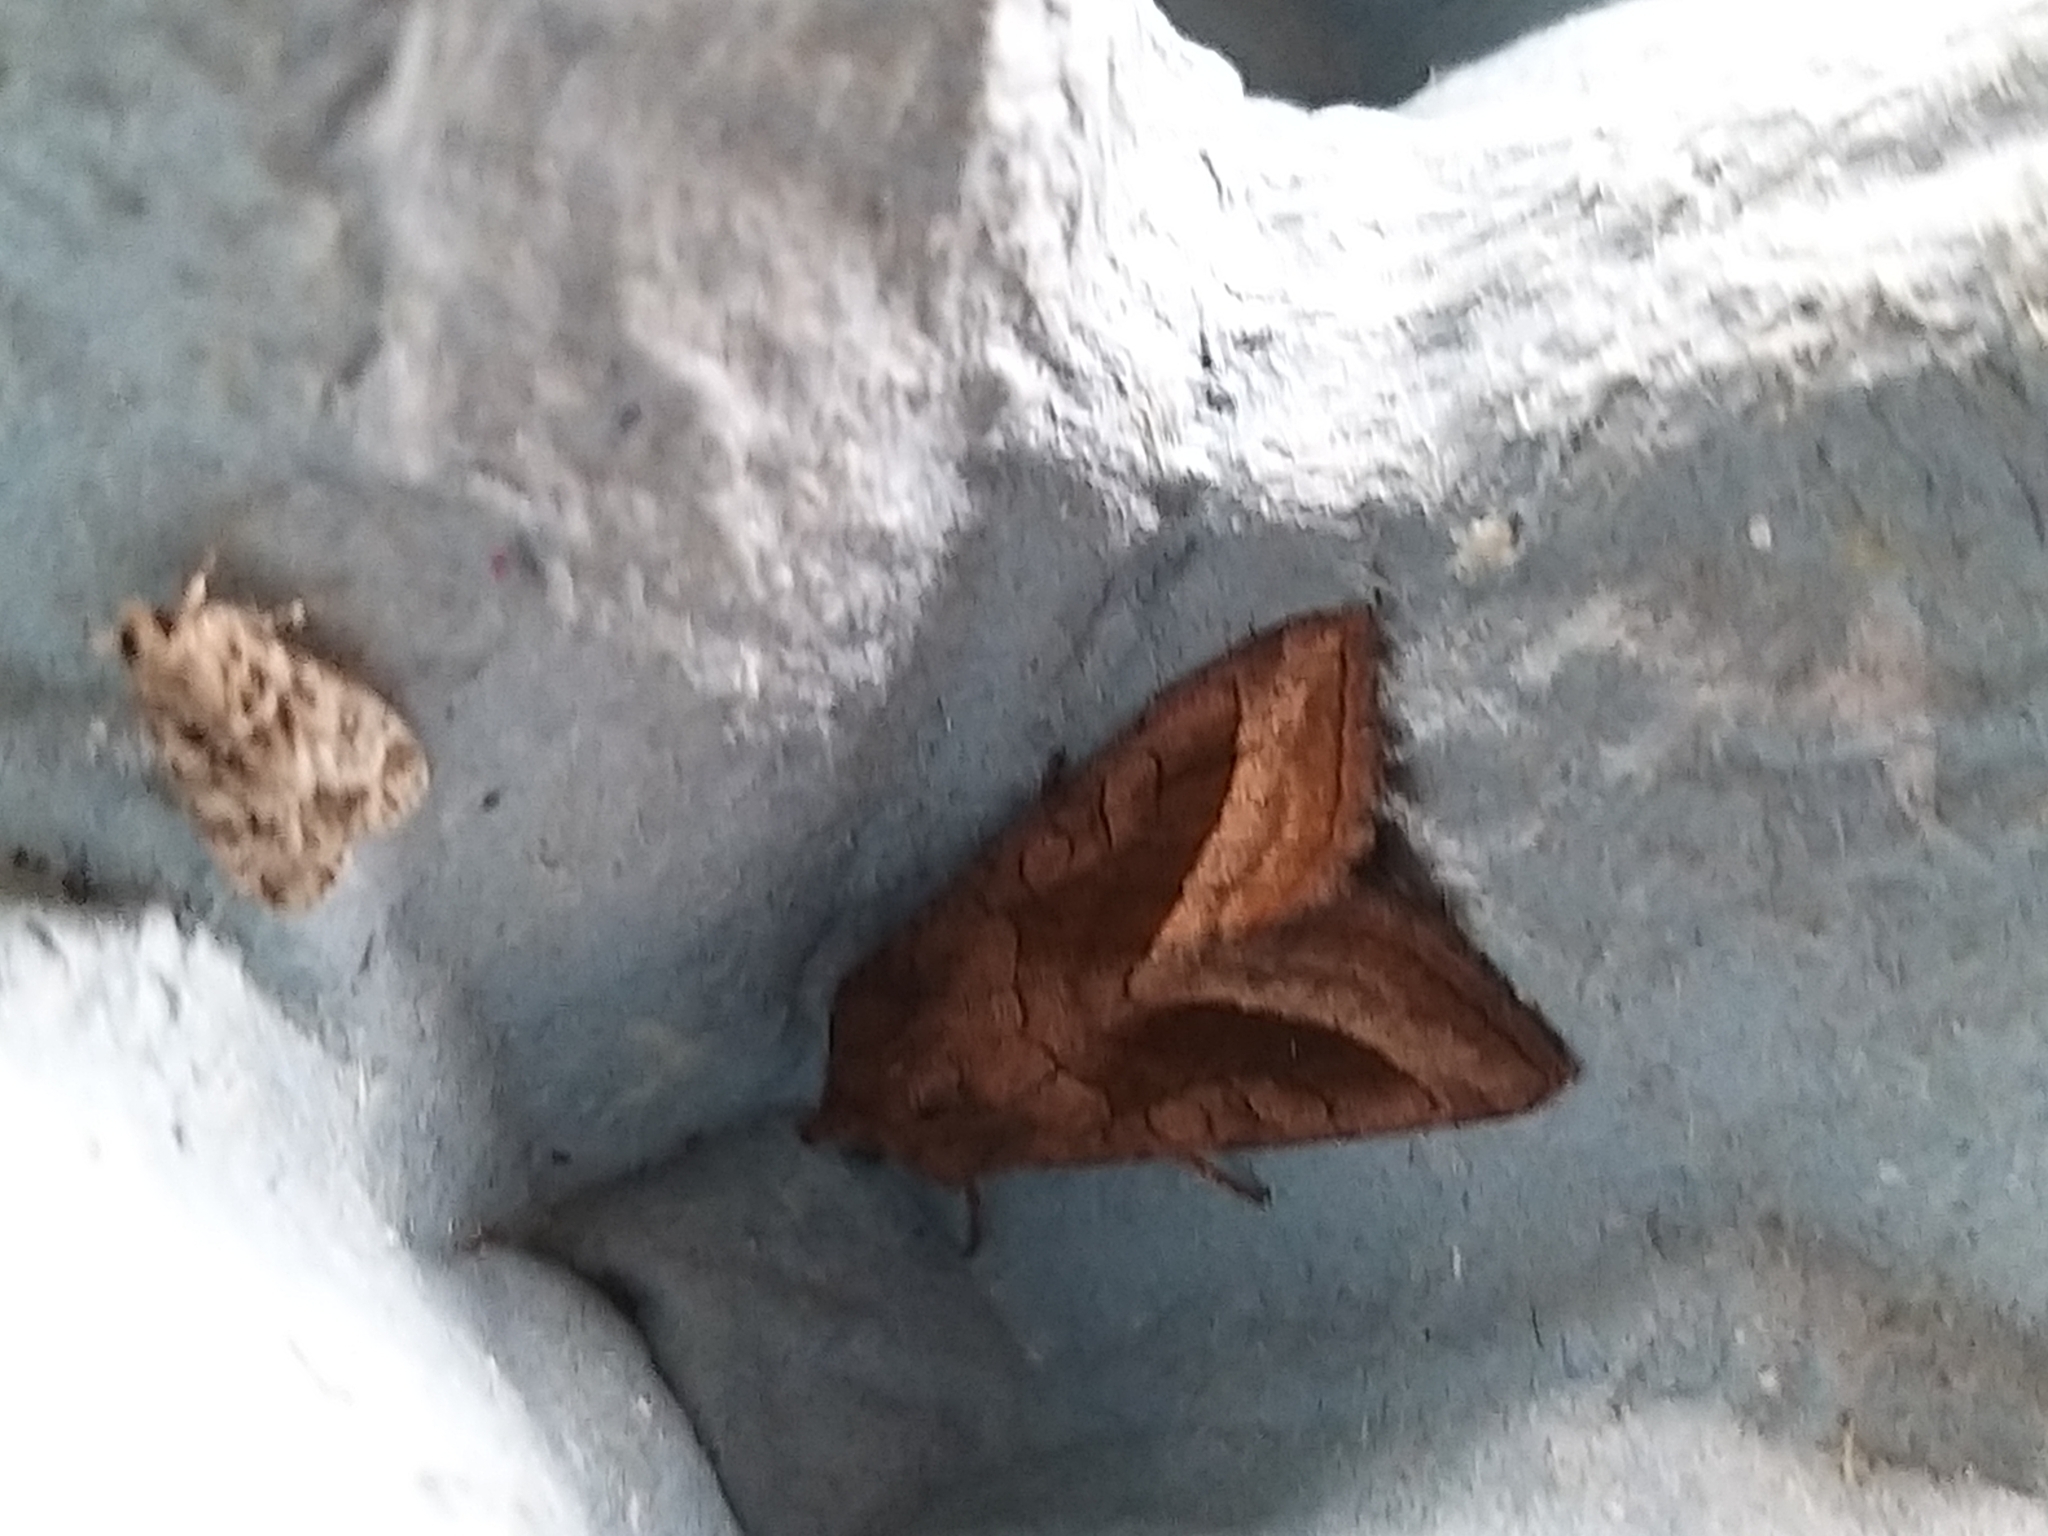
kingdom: Animalia
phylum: Arthropoda
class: Insecta
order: Lepidoptera
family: Noctuidae
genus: Hydraecia
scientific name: Hydraecia micacea
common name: Rosy rustic
